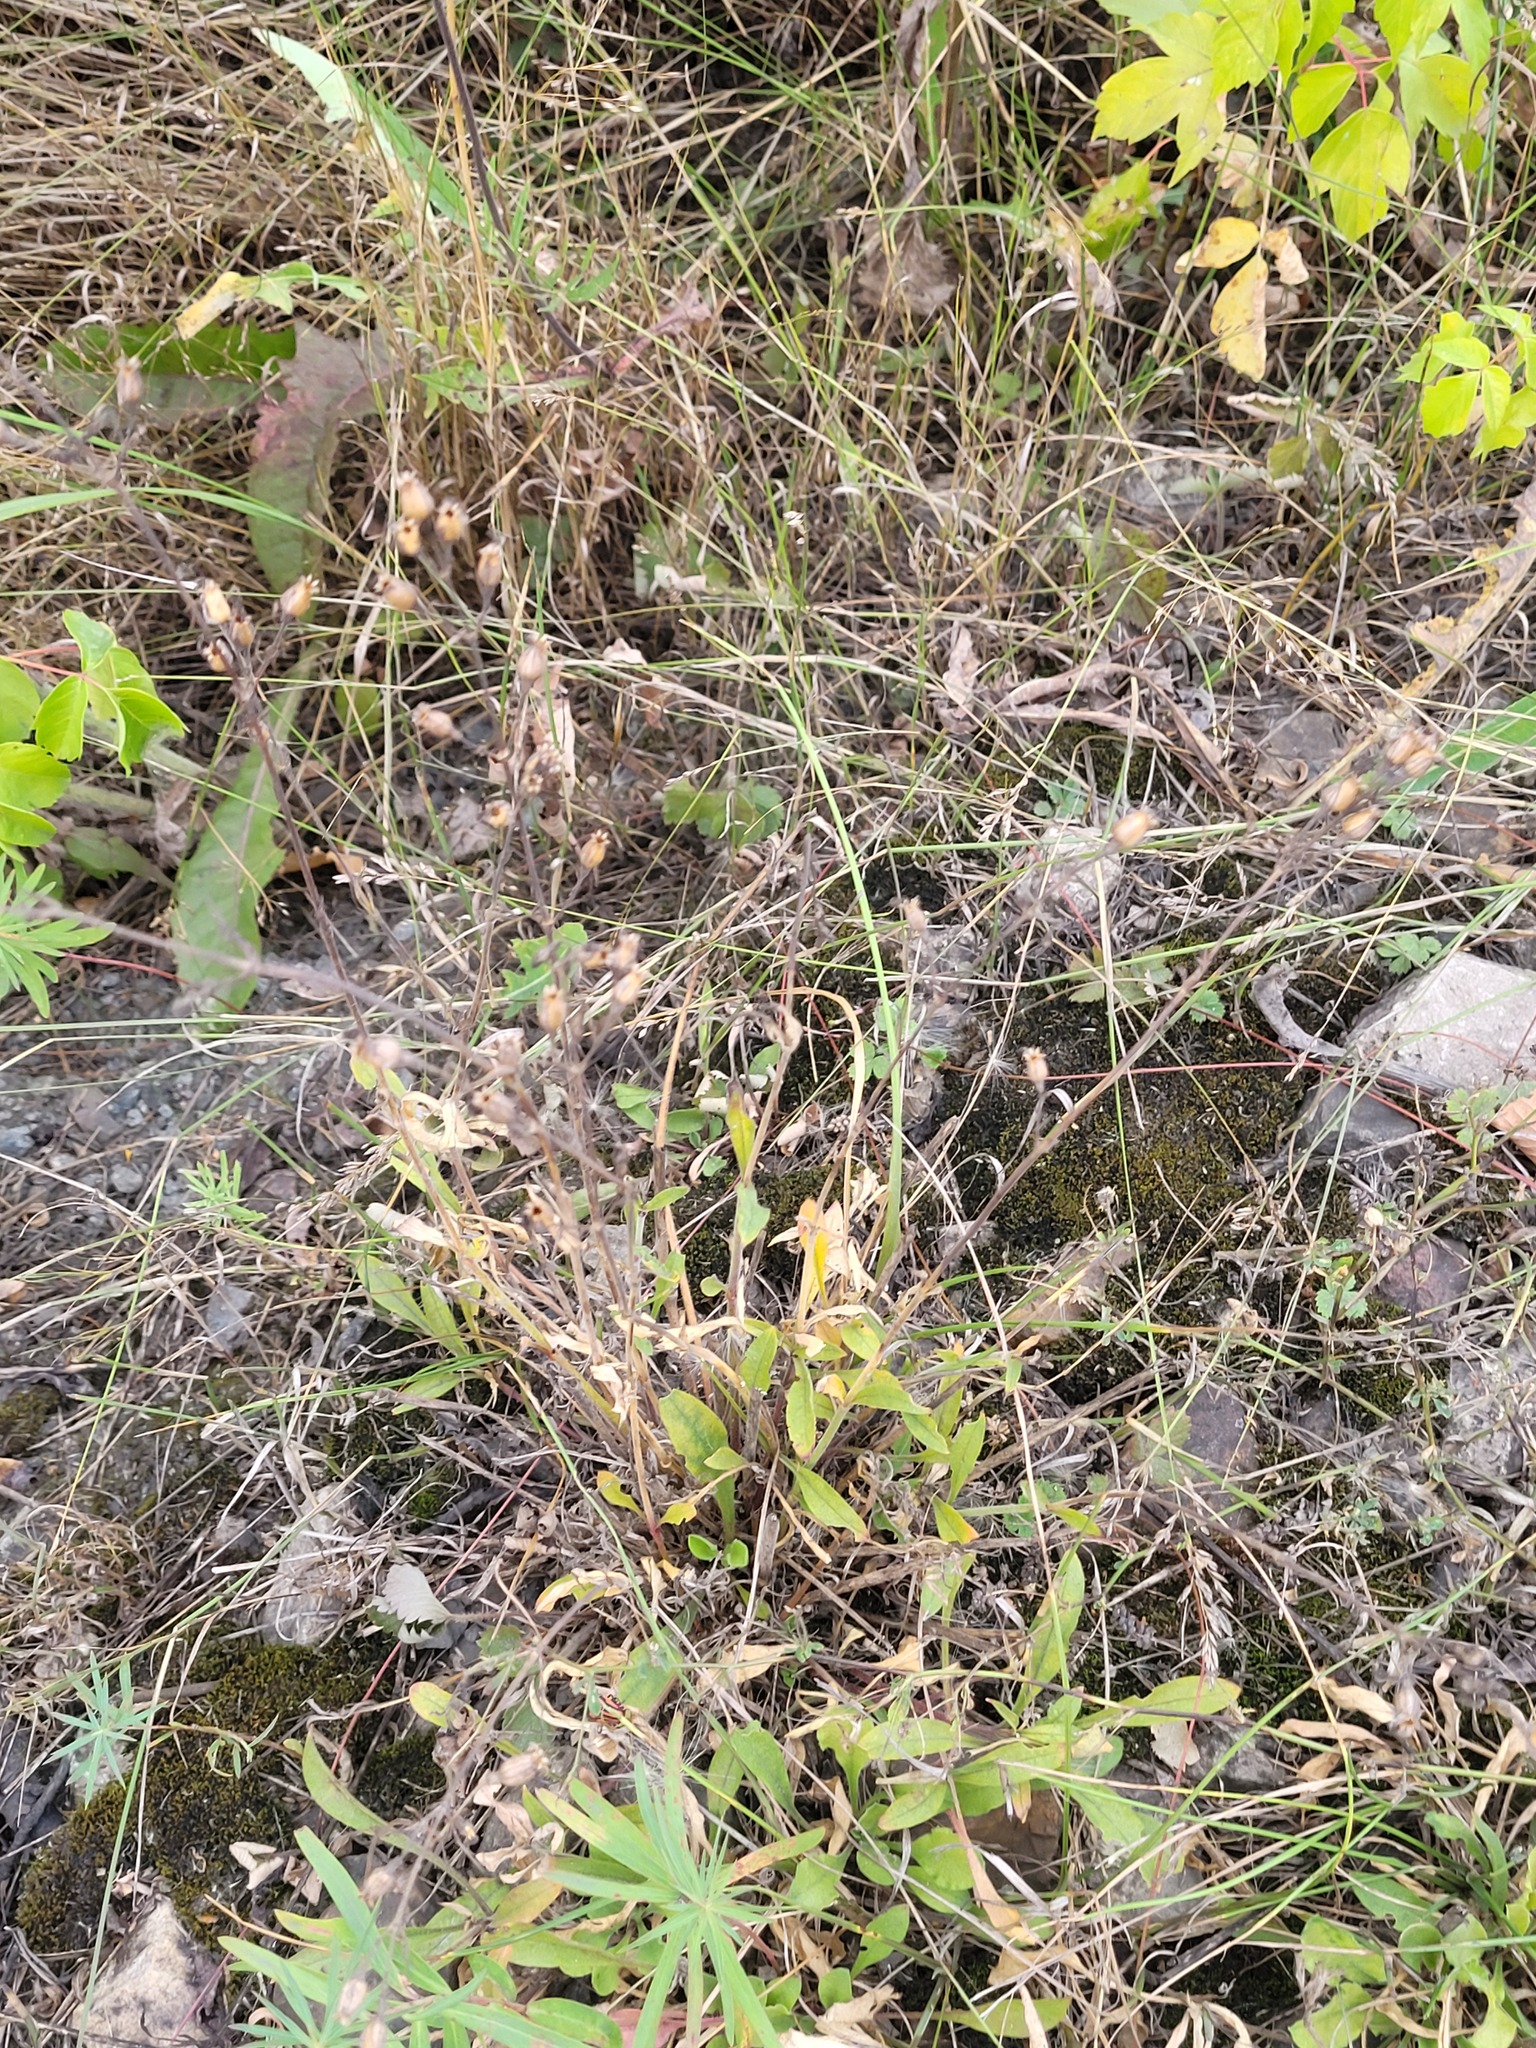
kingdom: Plantae
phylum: Tracheophyta
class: Magnoliopsida
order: Caryophyllales
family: Caryophyllaceae
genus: Silene
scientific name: Silene nutans
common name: Nottingham catchfly
